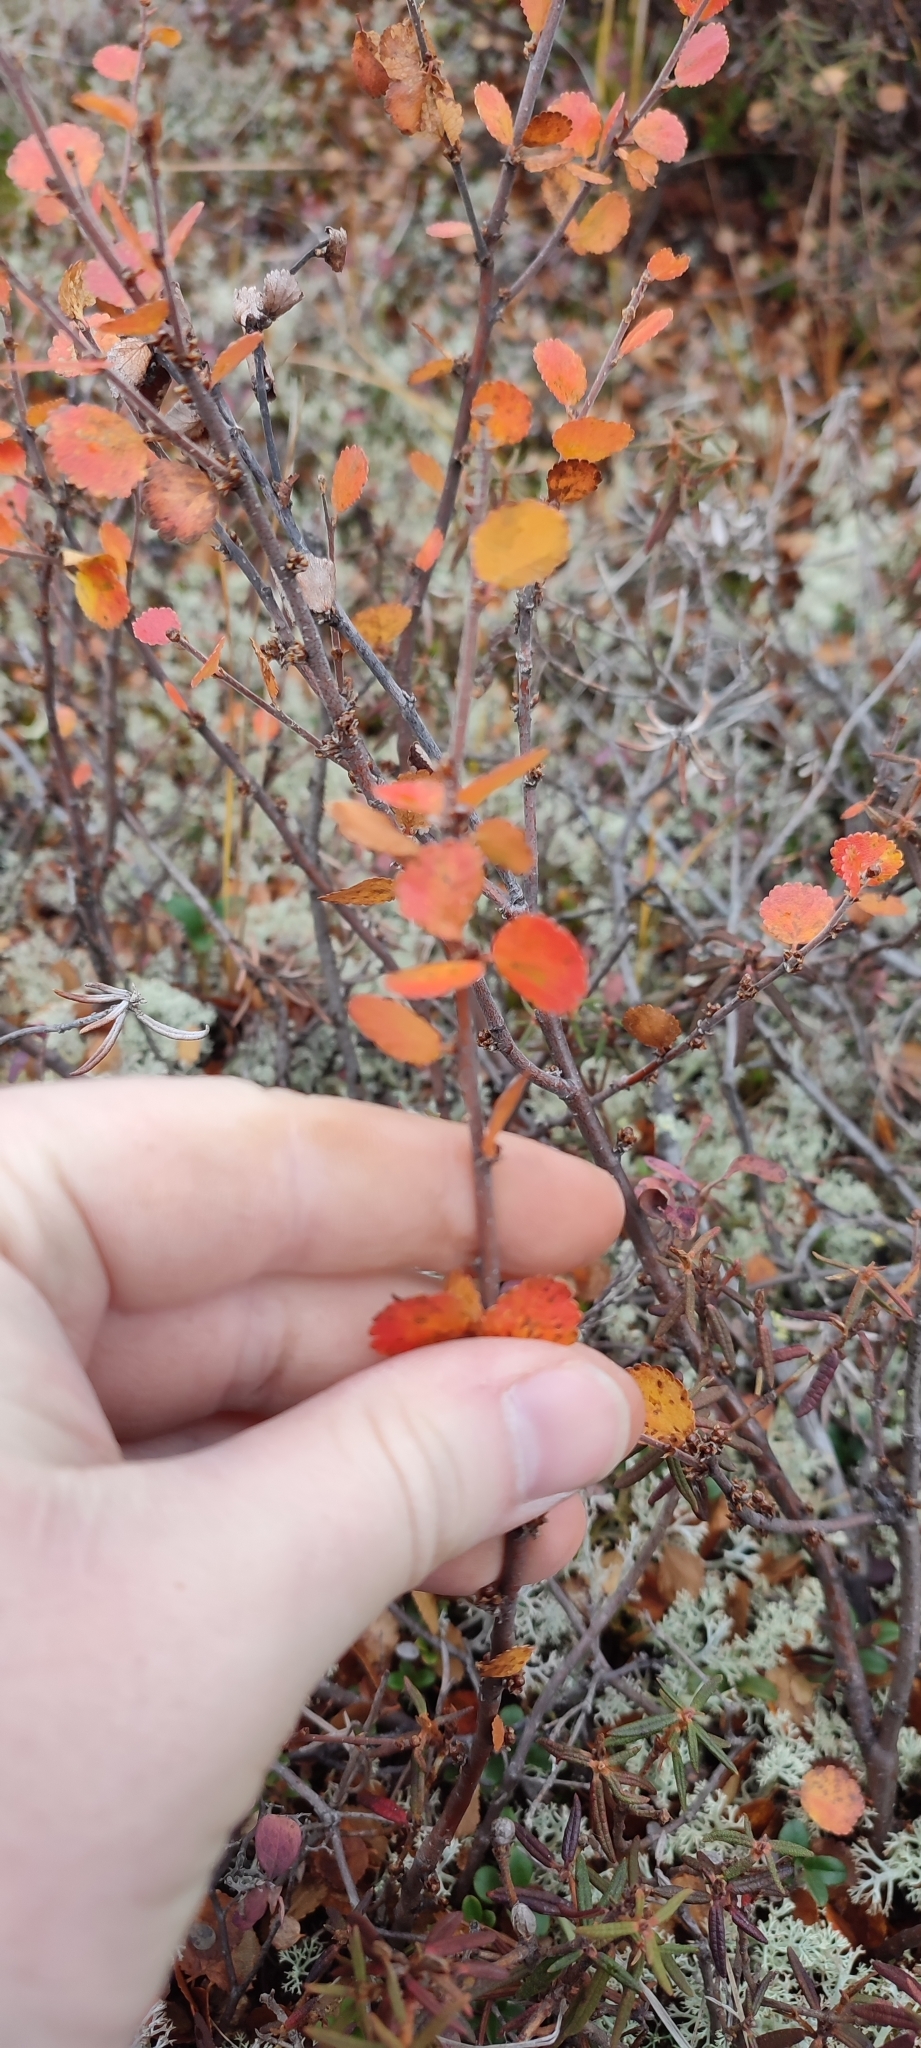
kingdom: Plantae
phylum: Tracheophyta
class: Magnoliopsida
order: Fagales
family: Betulaceae
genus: Betula
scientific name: Betula nana
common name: Arctic dwarf birch
